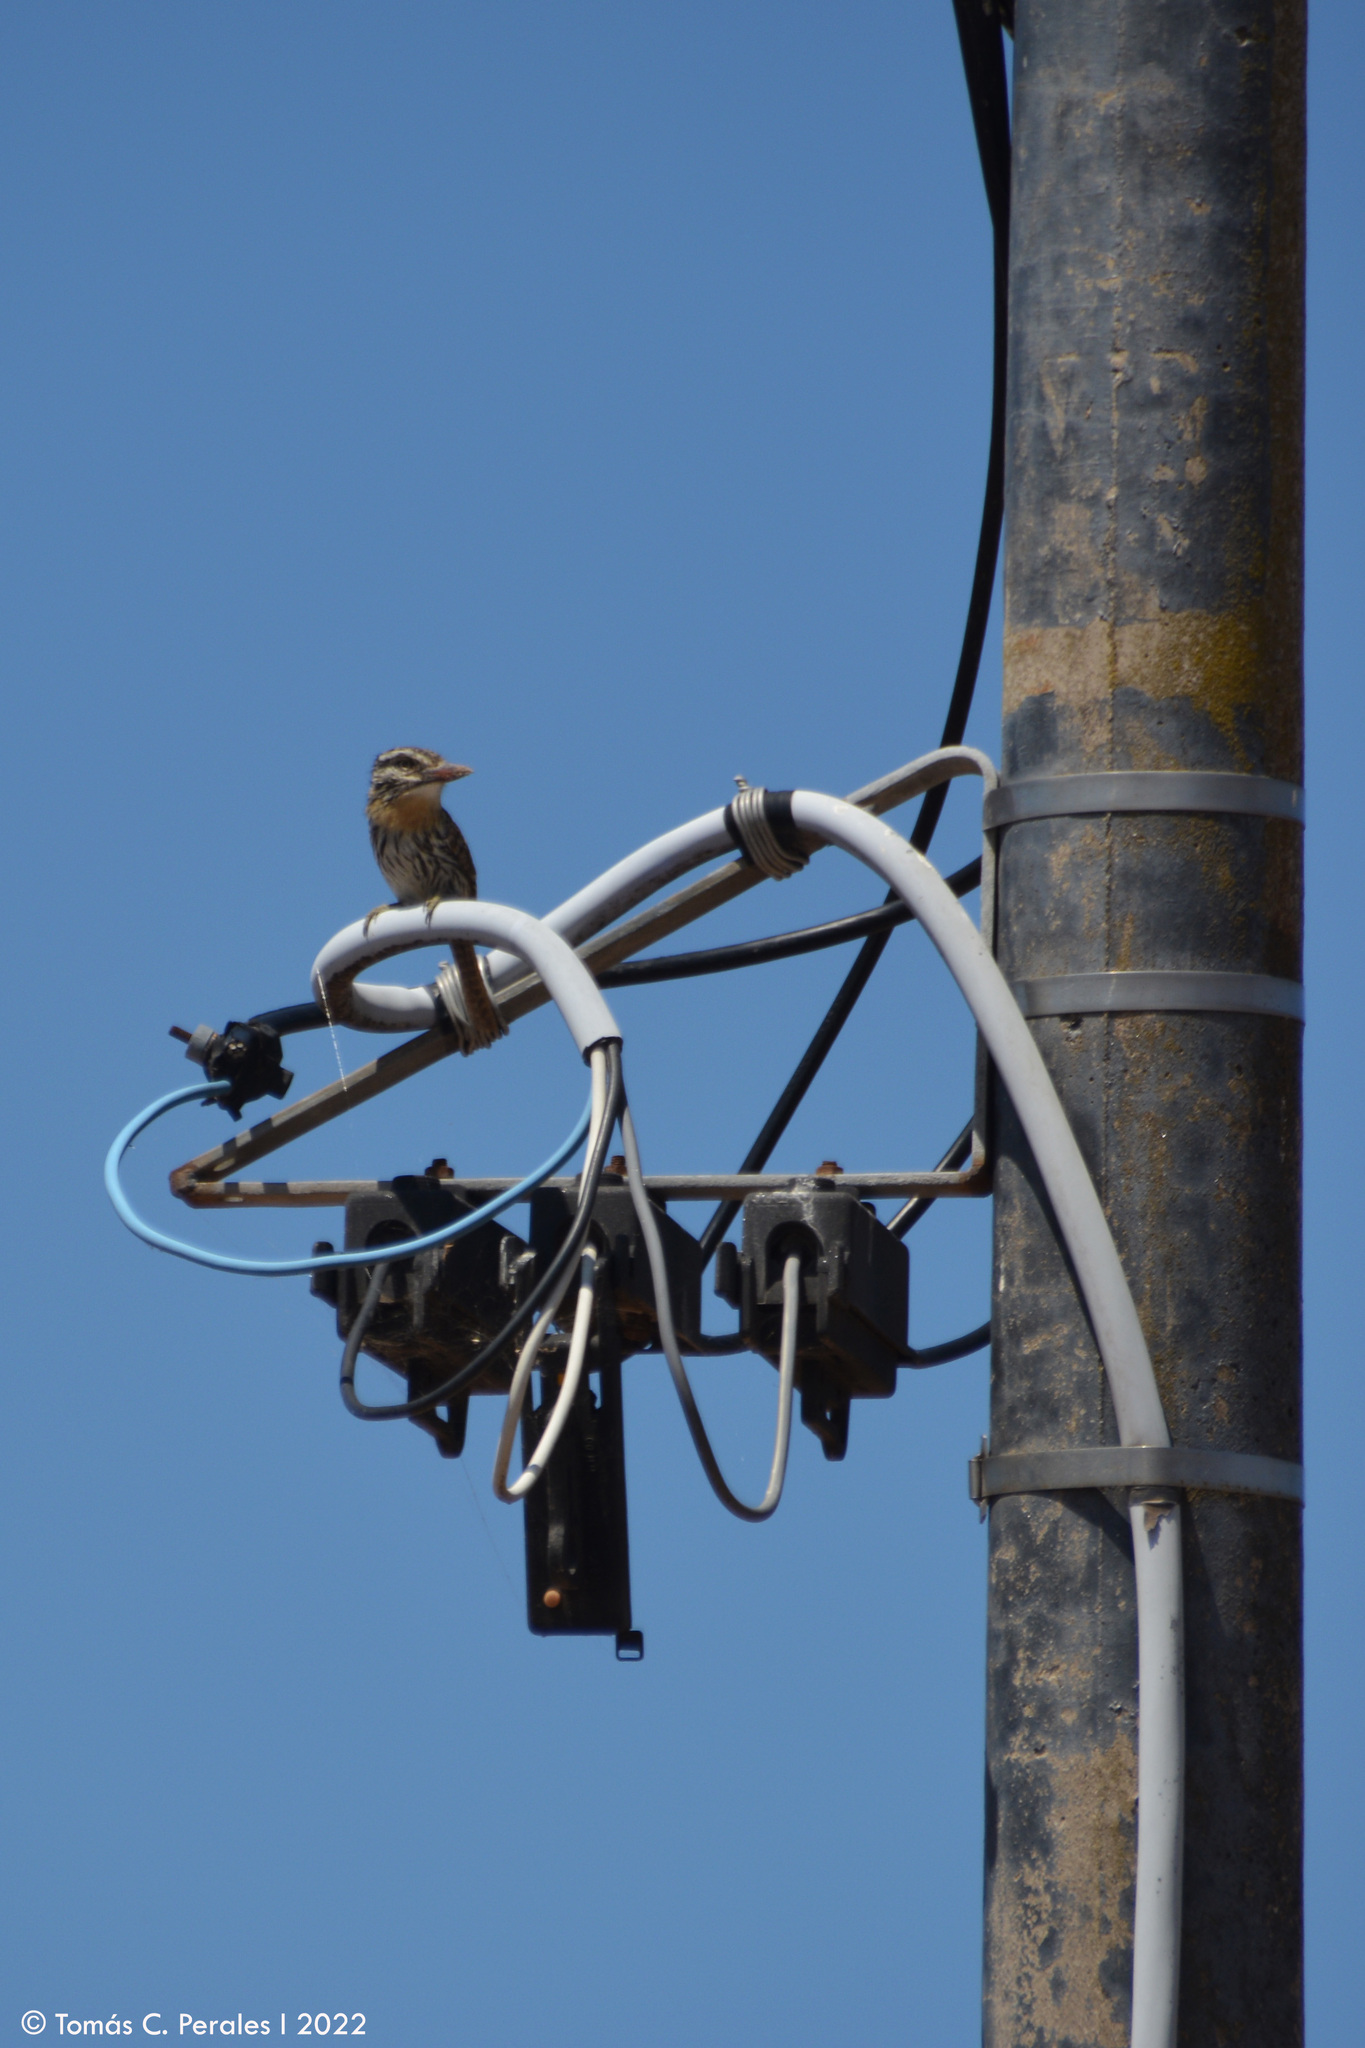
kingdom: Animalia
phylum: Chordata
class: Aves
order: Piciformes
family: Bucconidae
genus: Nystalus
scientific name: Nystalus maculatus
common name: Caatinga puffbird
